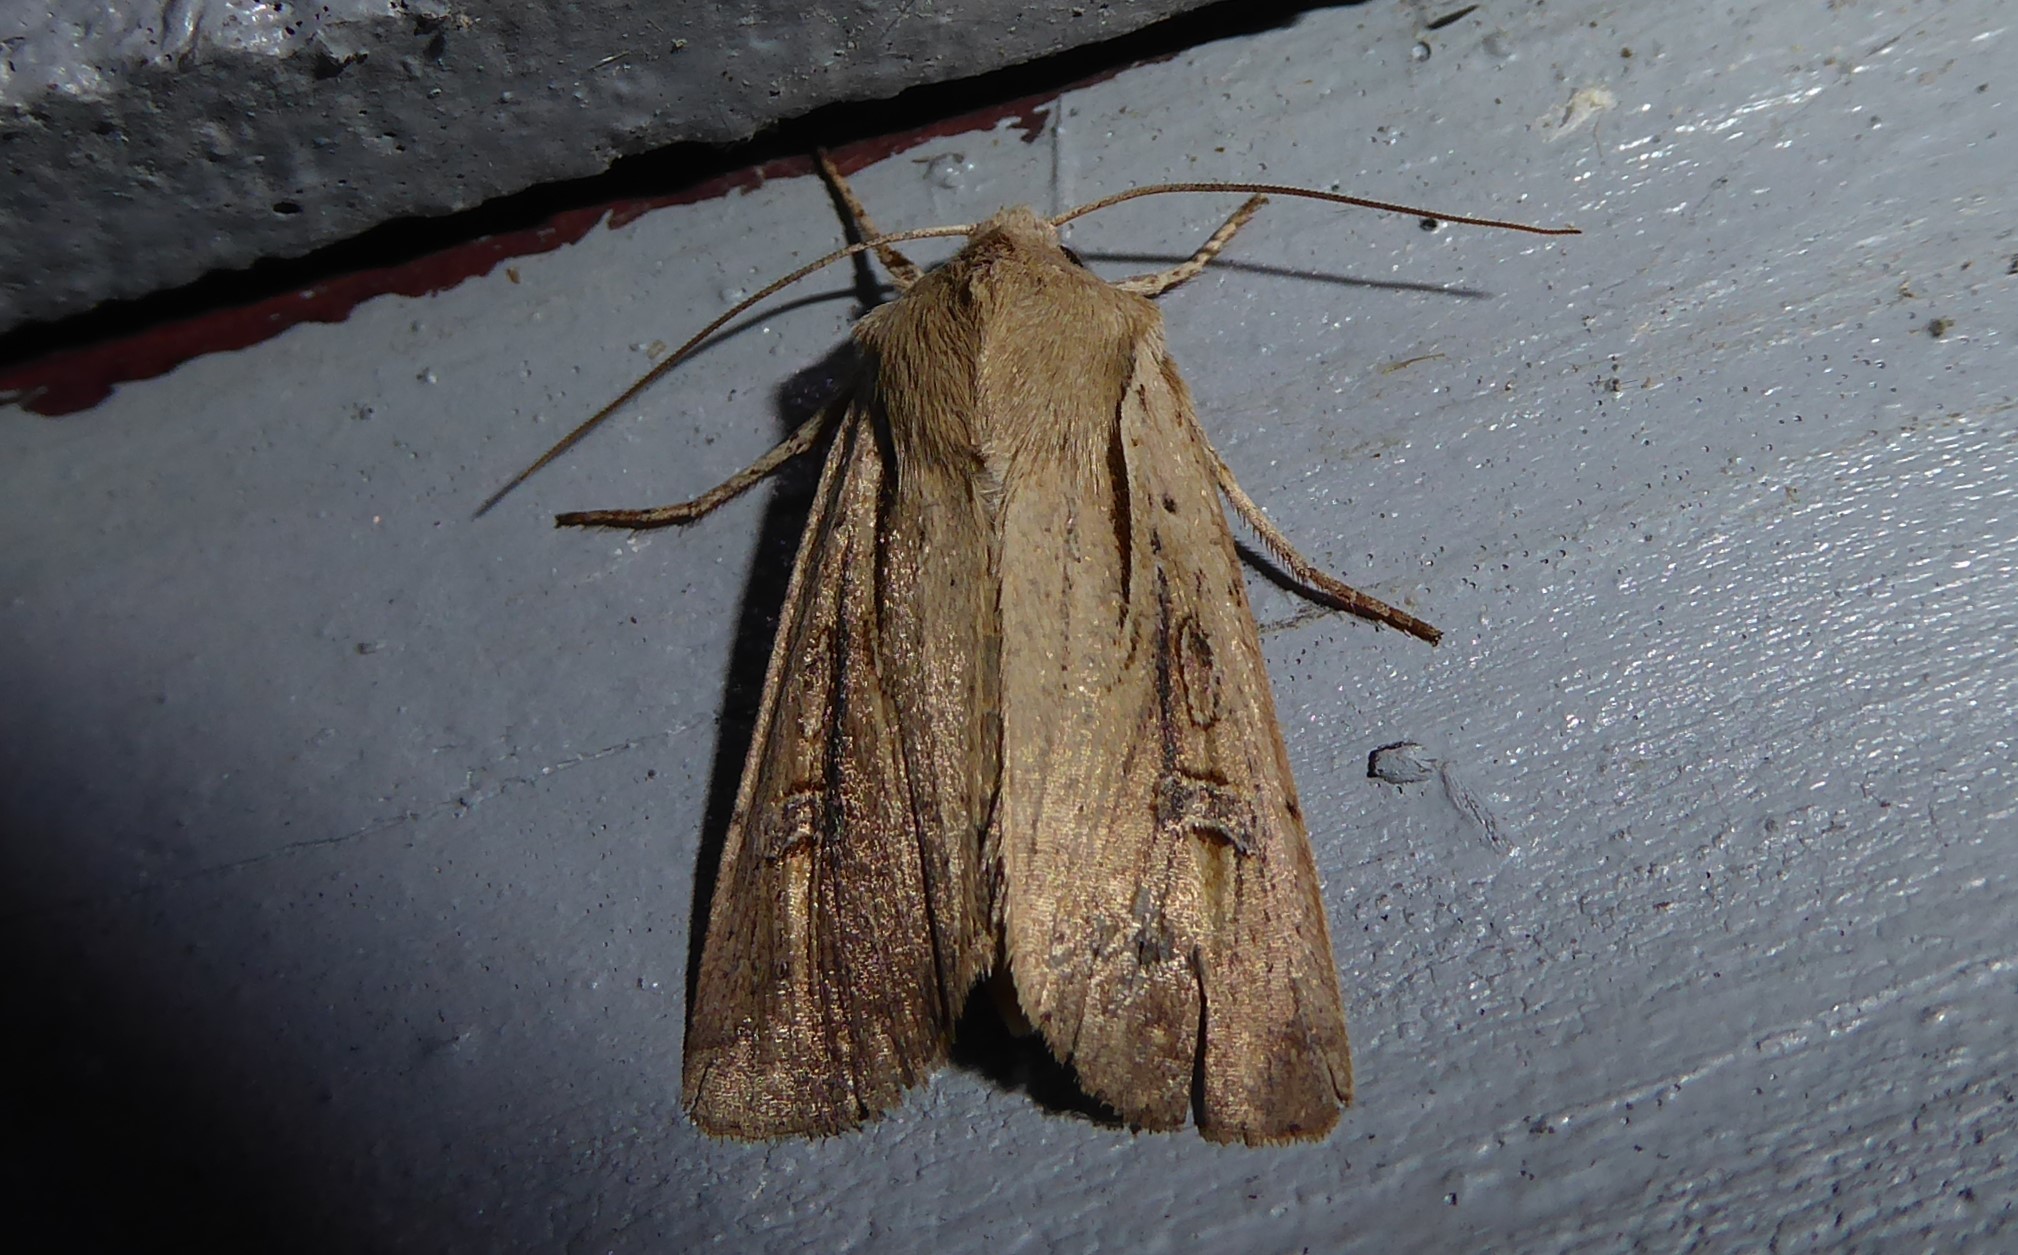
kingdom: Animalia
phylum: Arthropoda
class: Insecta
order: Lepidoptera
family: Noctuidae
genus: Ichneutica
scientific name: Ichneutica atristriga
